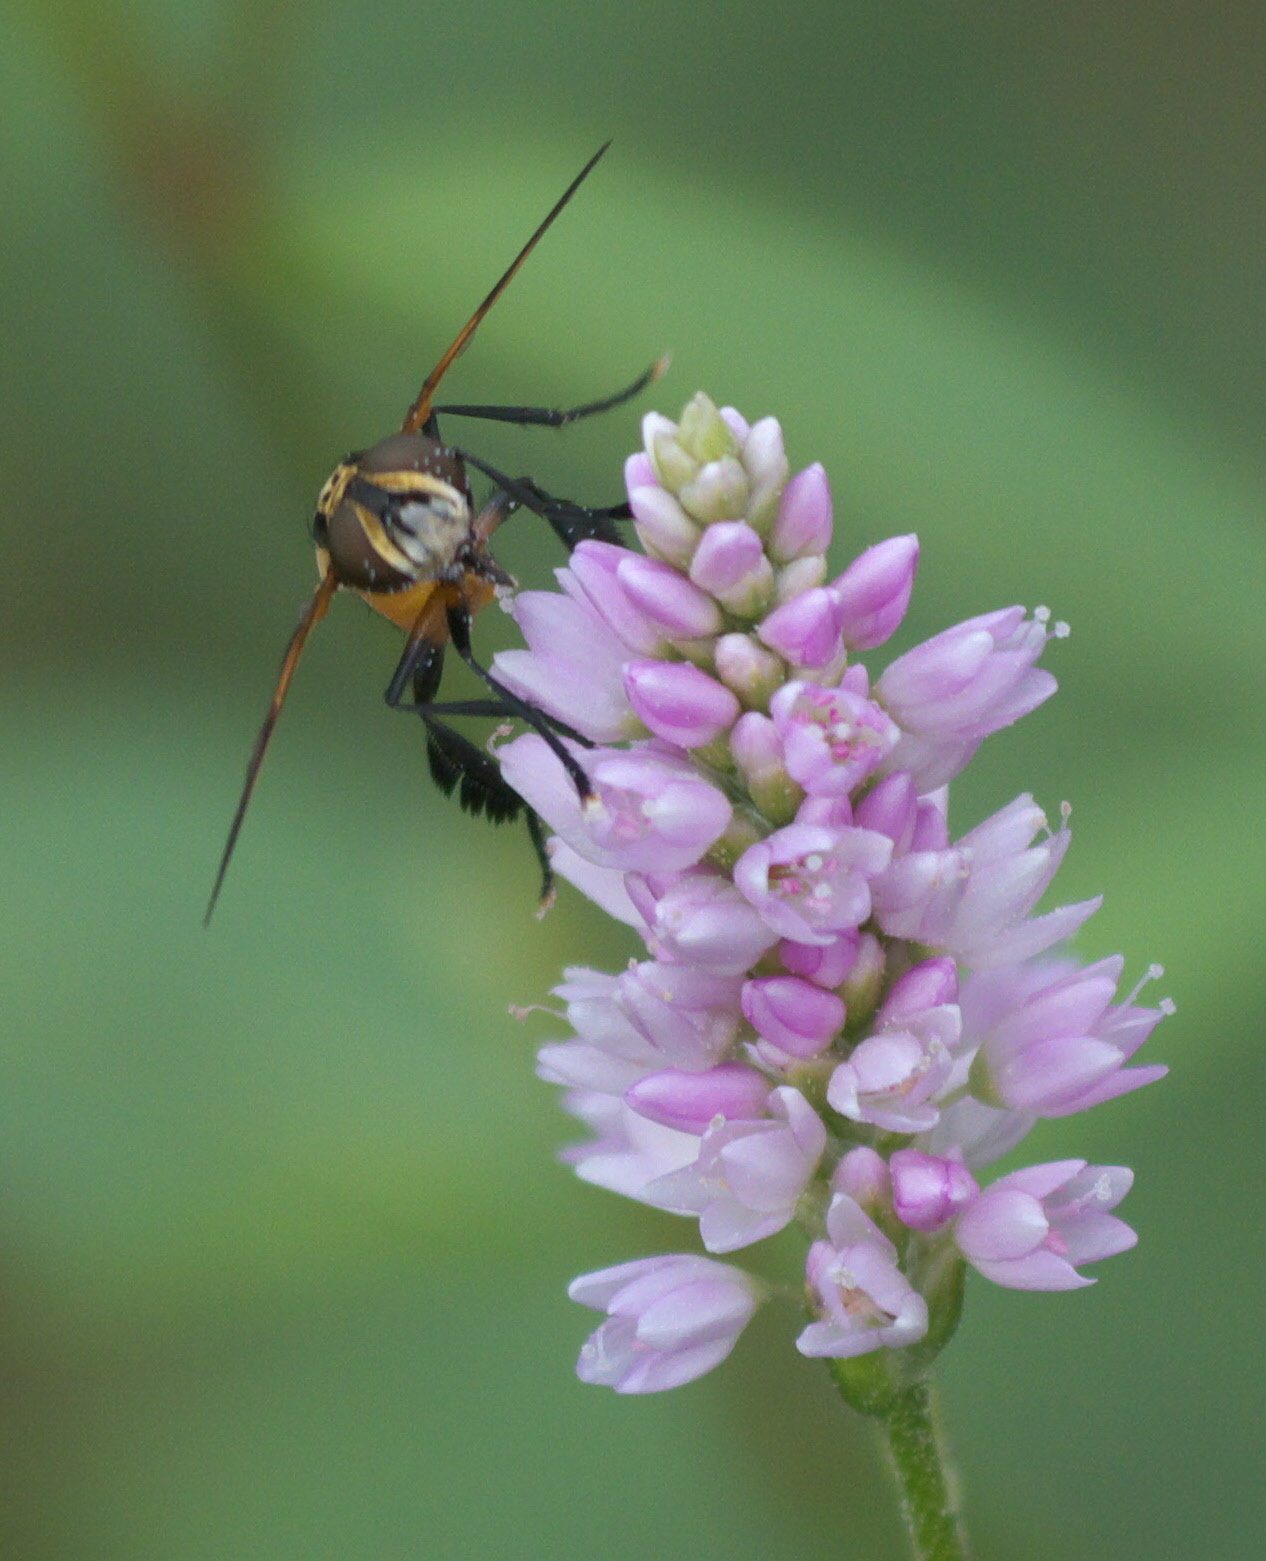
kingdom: Animalia
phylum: Arthropoda
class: Insecta
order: Diptera
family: Tachinidae
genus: Trichopoda
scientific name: Trichopoda pennipes
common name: Tachinid fly
